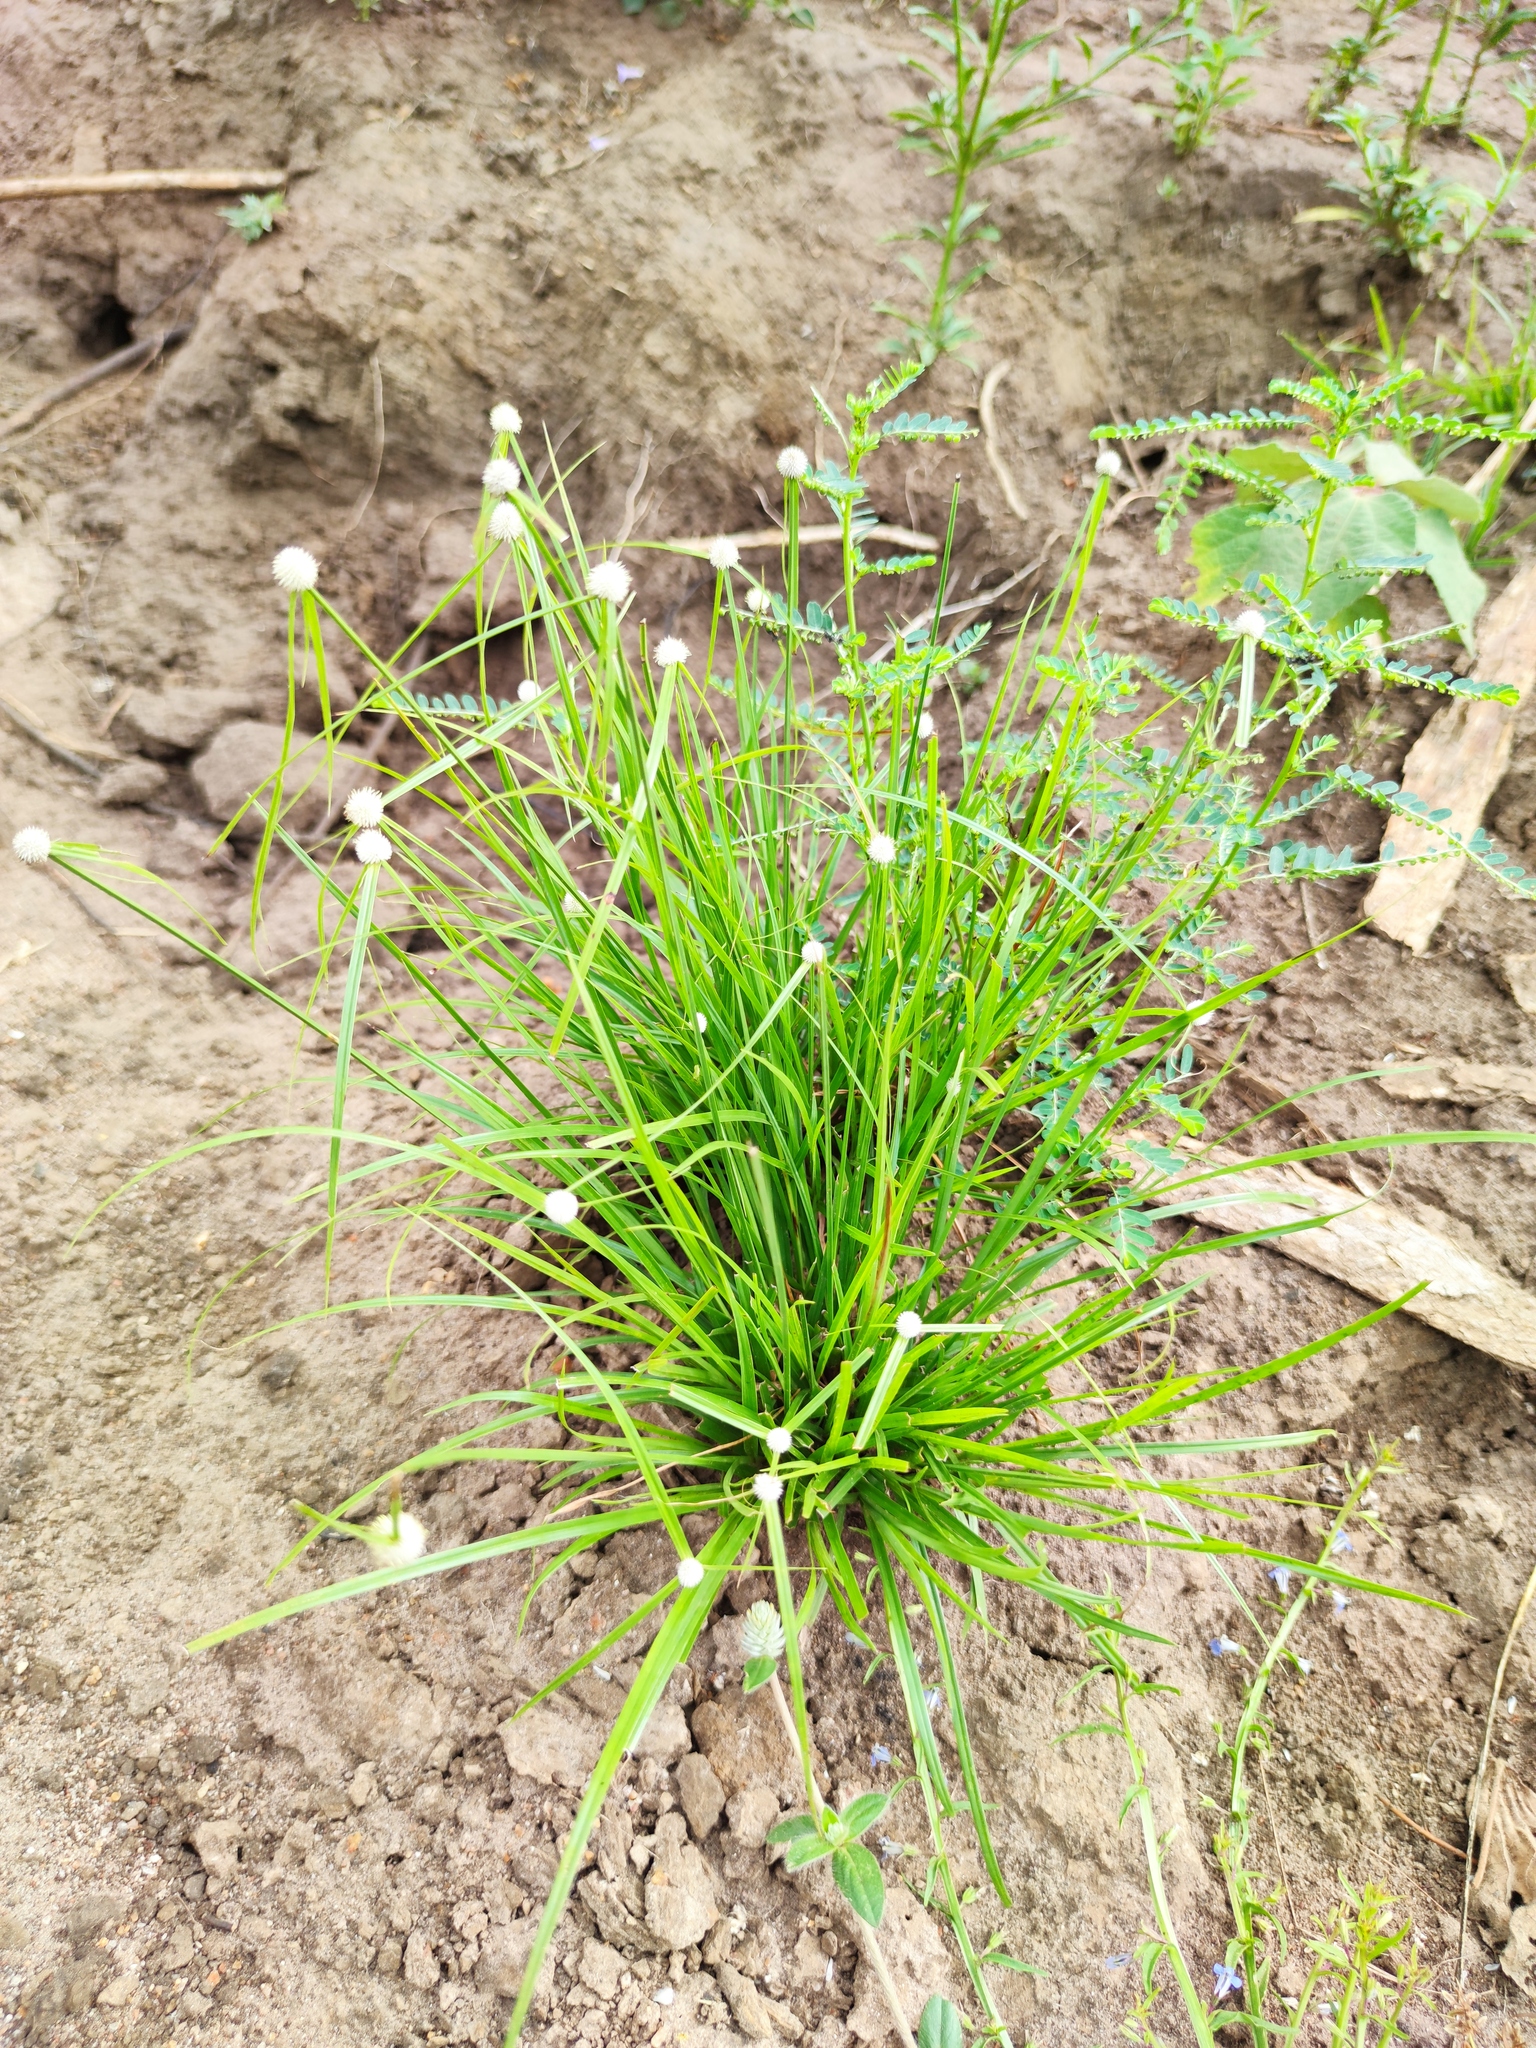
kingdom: Plantae
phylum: Tracheophyta
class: Liliopsida
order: Poales
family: Cyperaceae
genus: Cyperus
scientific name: Cyperus alatus
